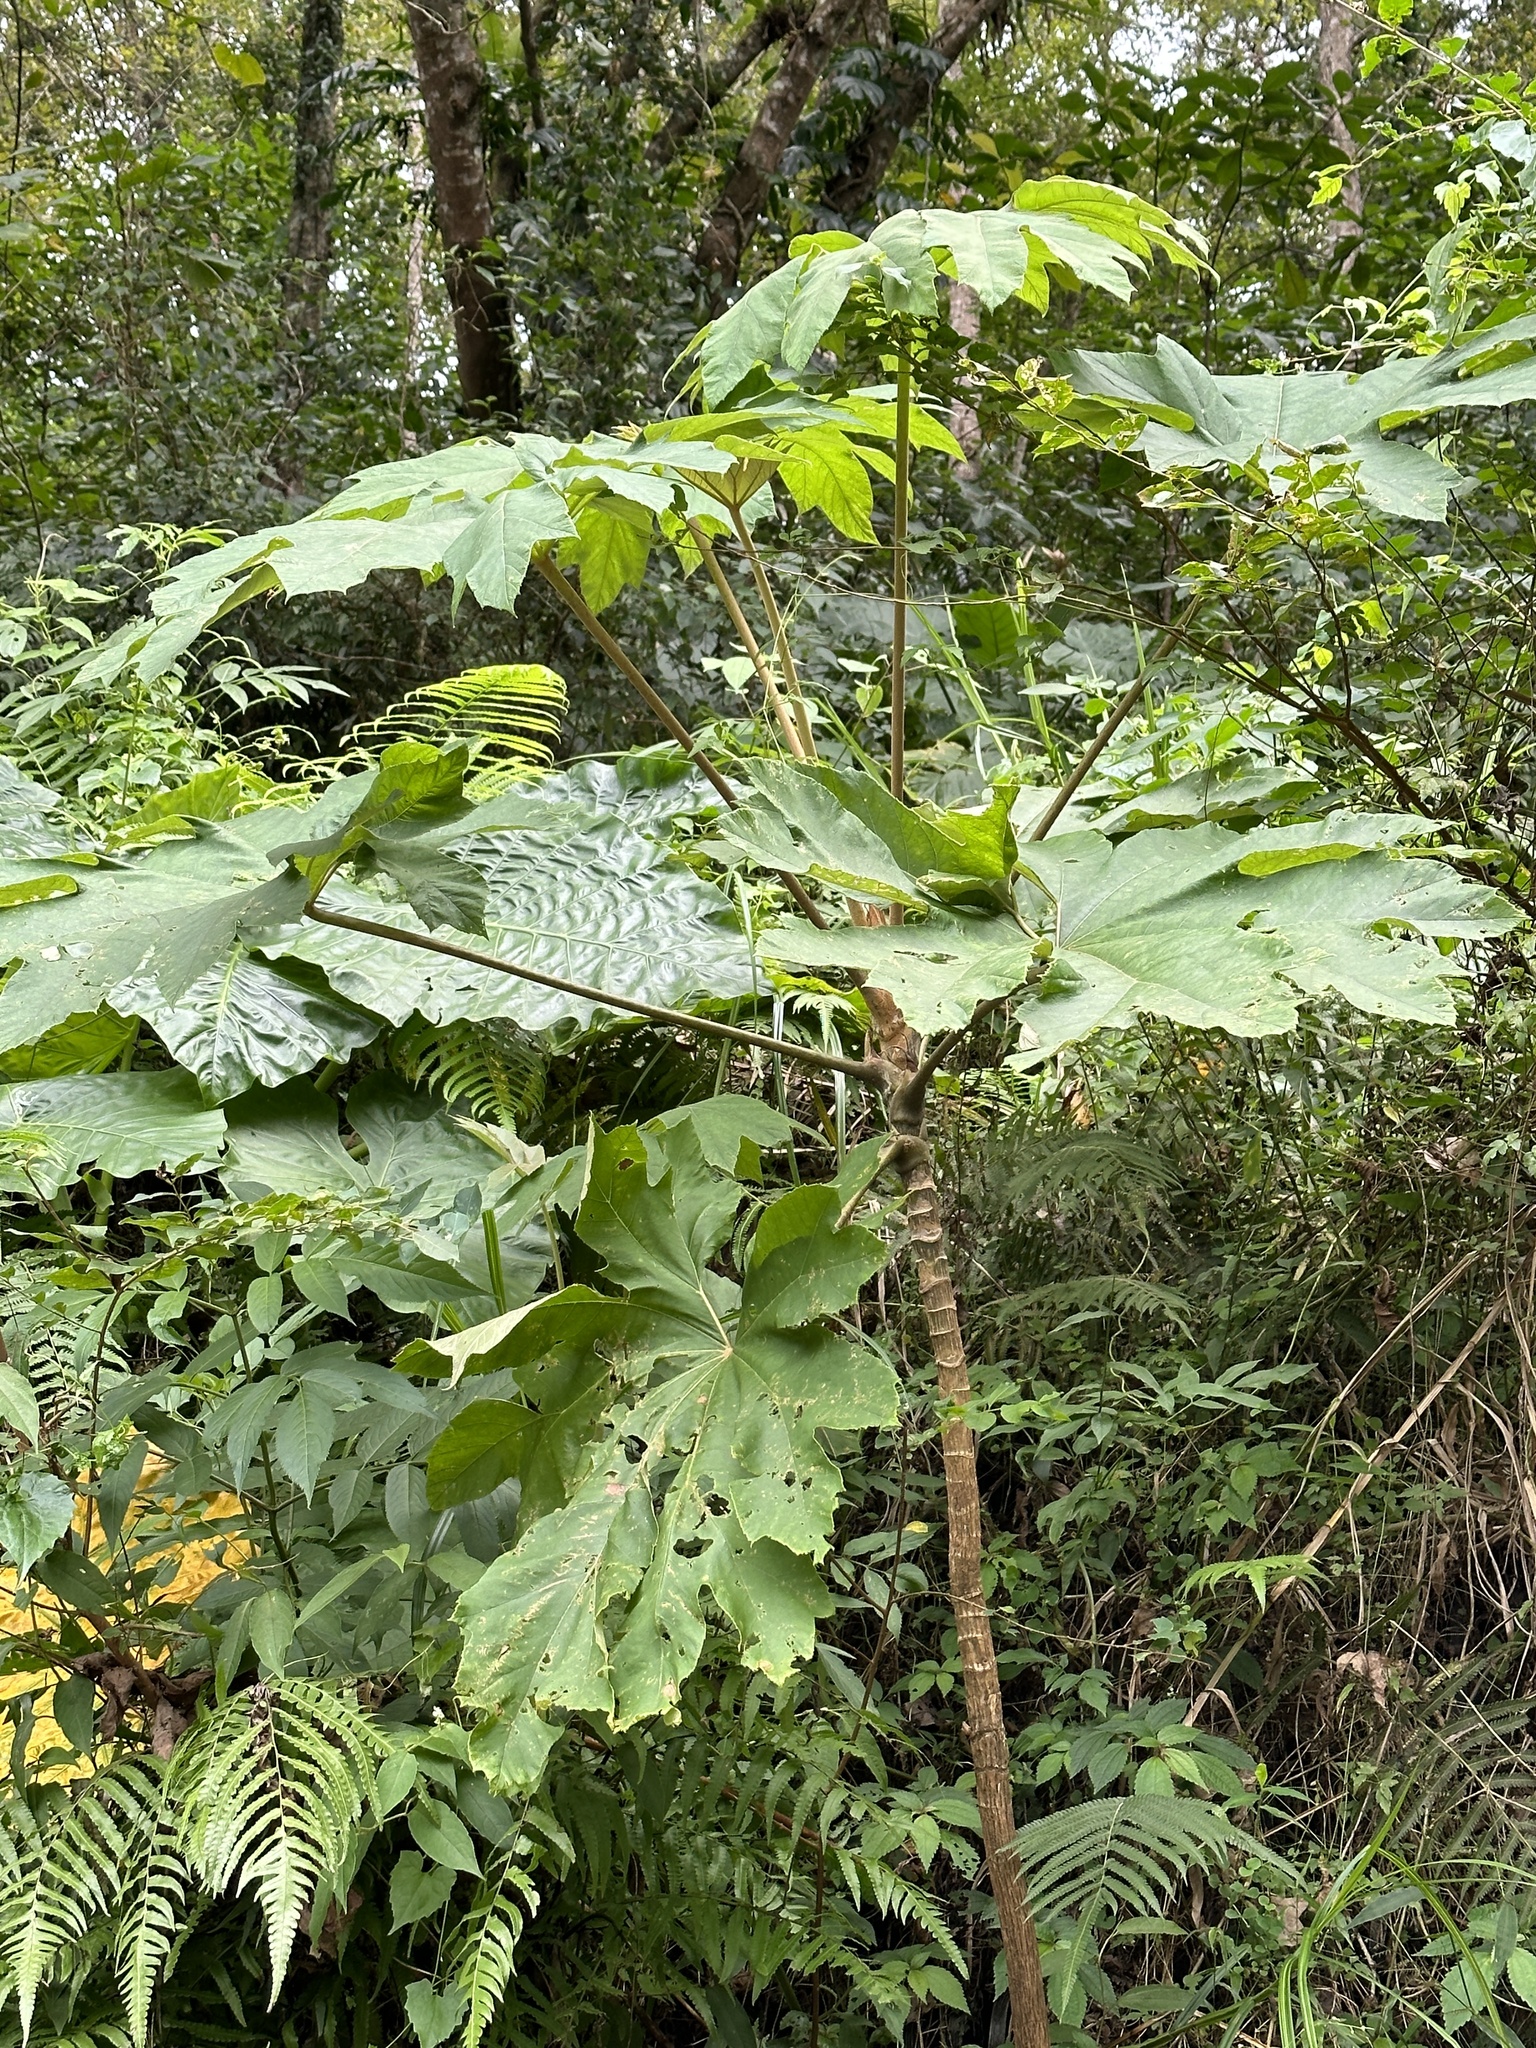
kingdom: Plantae
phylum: Tracheophyta
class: Magnoliopsida
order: Apiales
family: Araliaceae
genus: Tetrapanax
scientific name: Tetrapanax papyrifer
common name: Rice-paper plant
